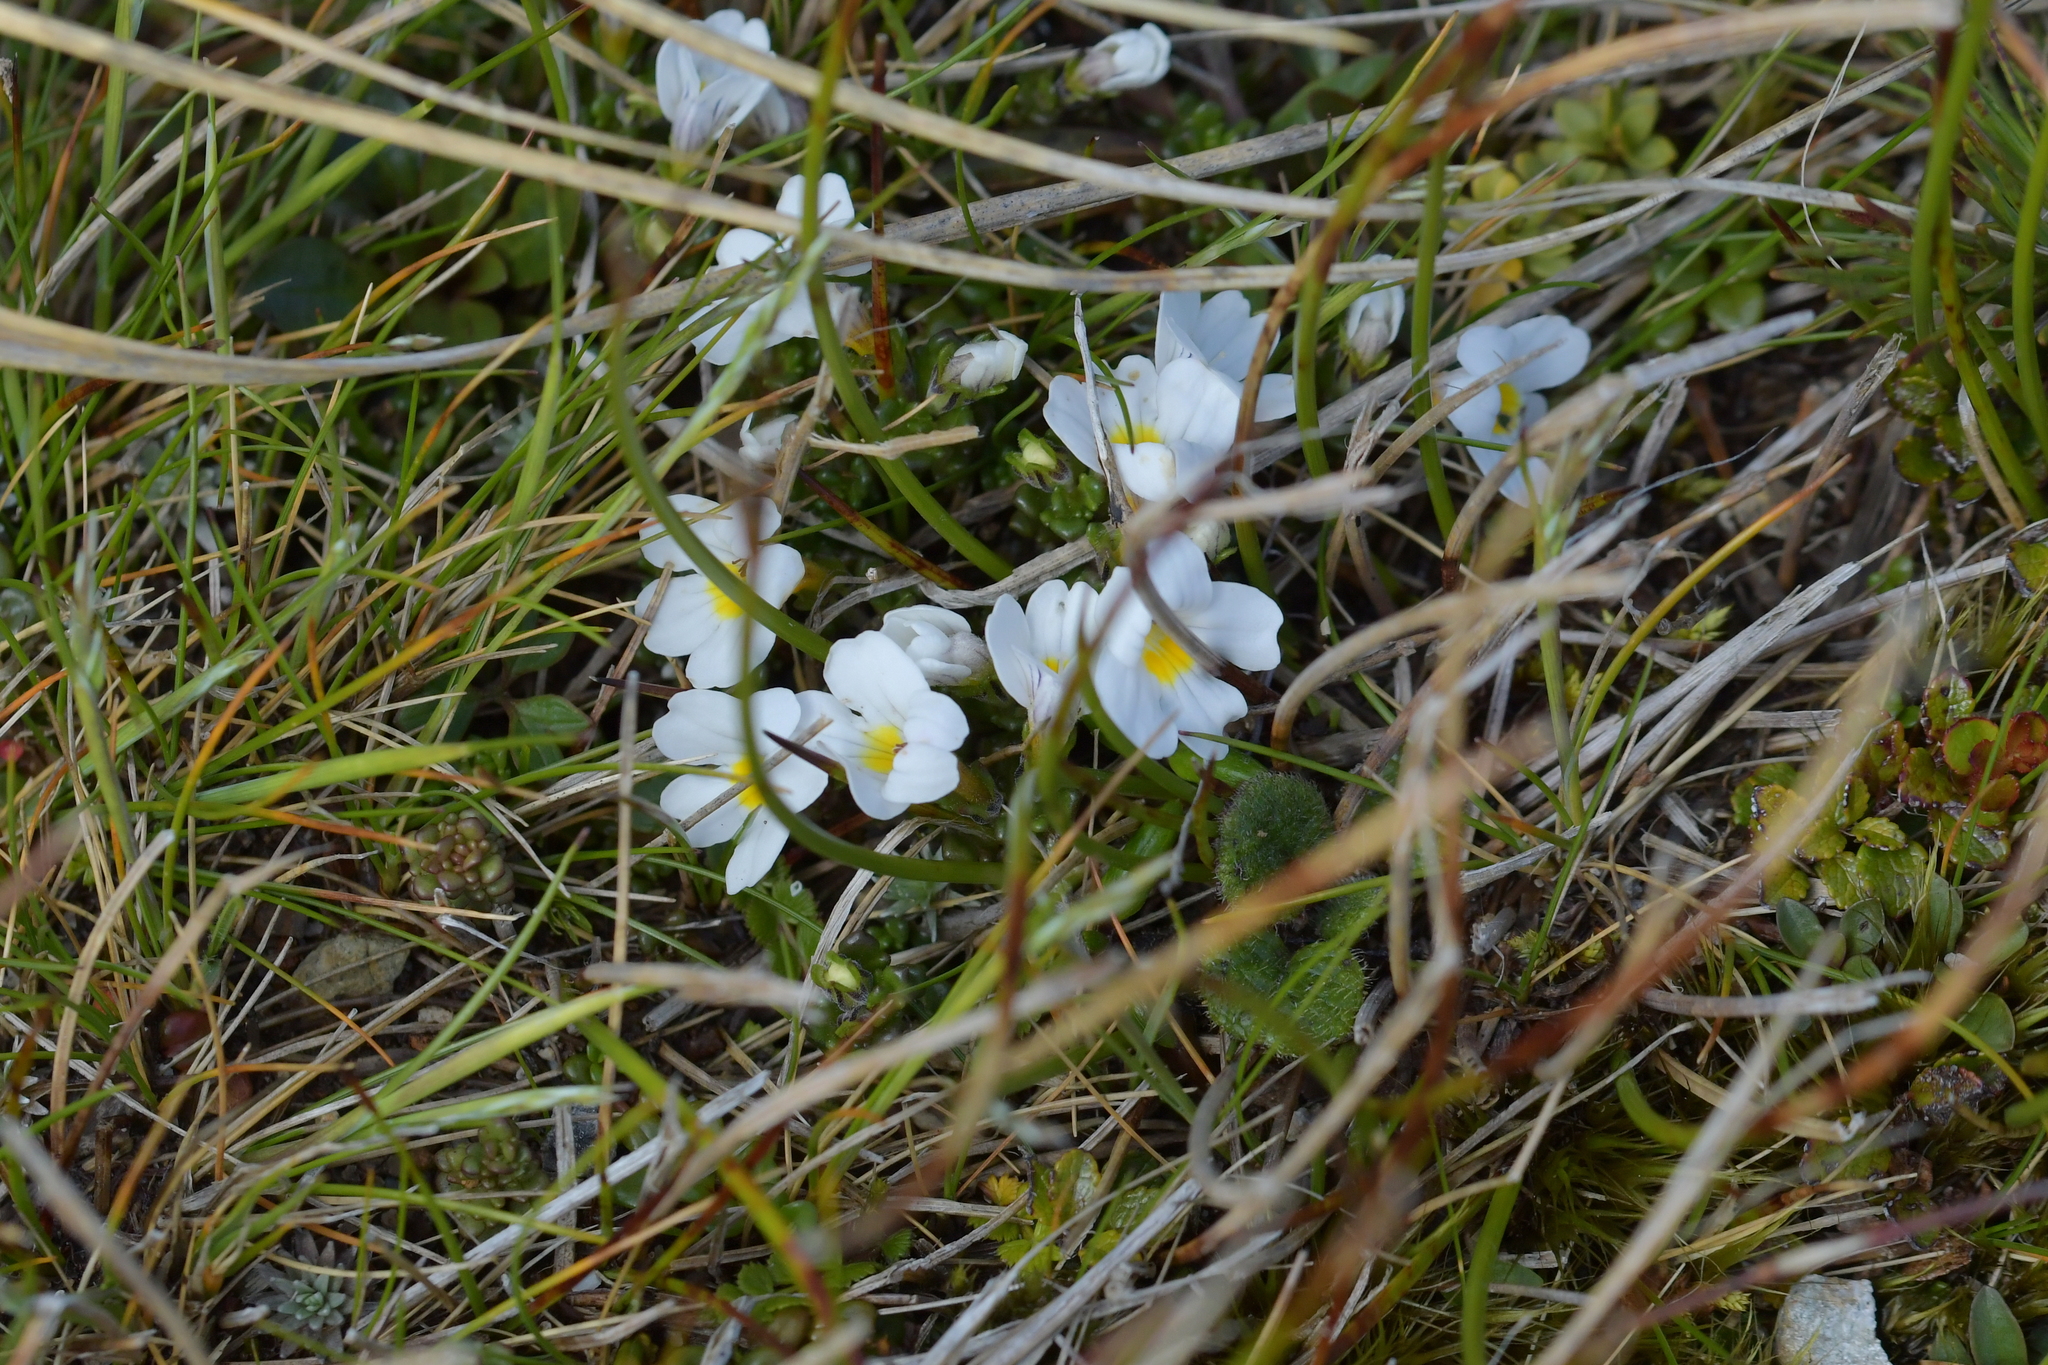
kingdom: Plantae
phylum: Tracheophyta
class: Magnoliopsida
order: Lamiales
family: Orobanchaceae
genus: Euphrasia
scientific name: Euphrasia revoluta
